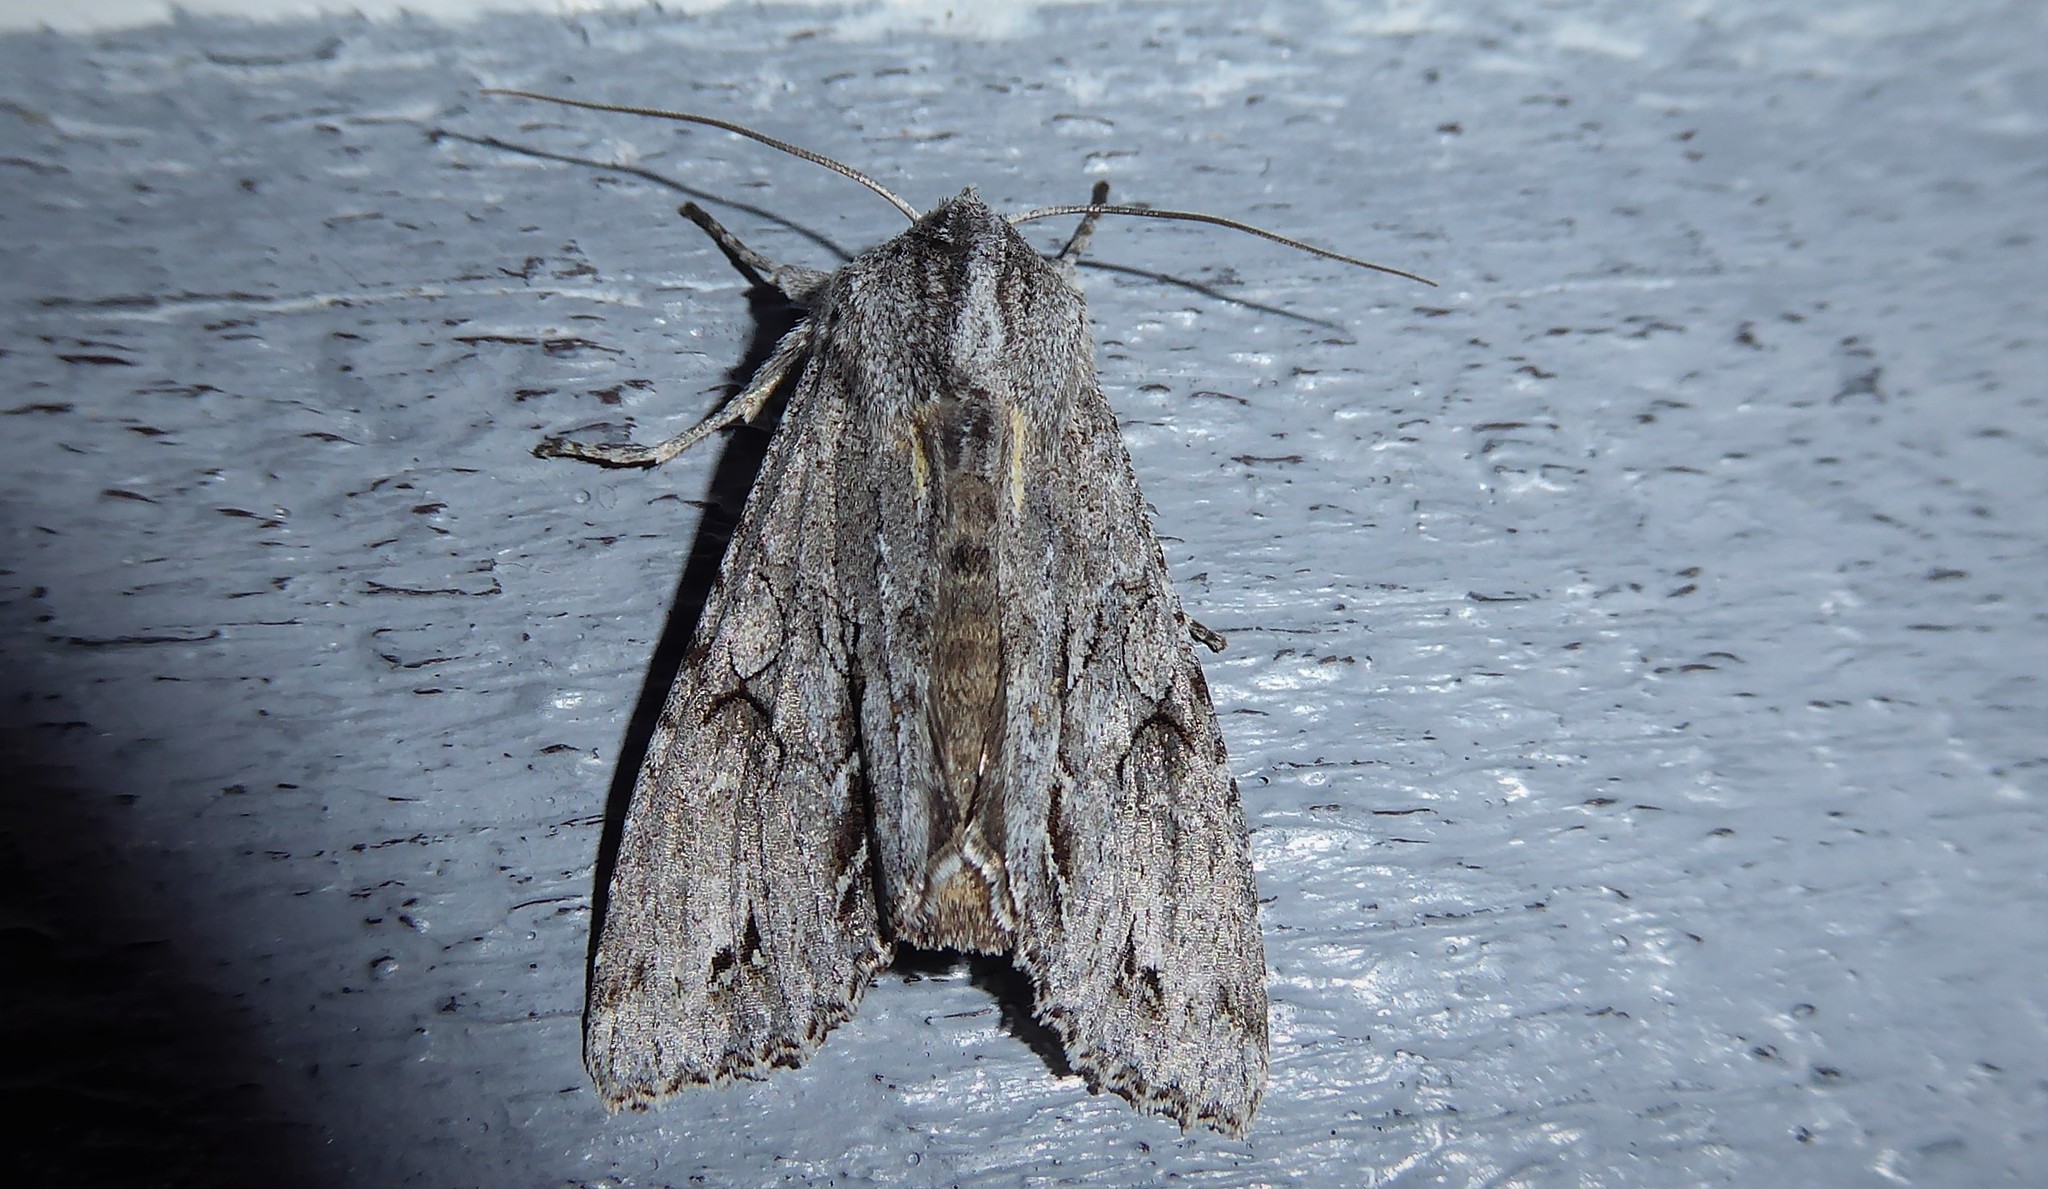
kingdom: Animalia
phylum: Arthropoda
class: Insecta
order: Lepidoptera
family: Noctuidae
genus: Ichneutica
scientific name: Ichneutica
